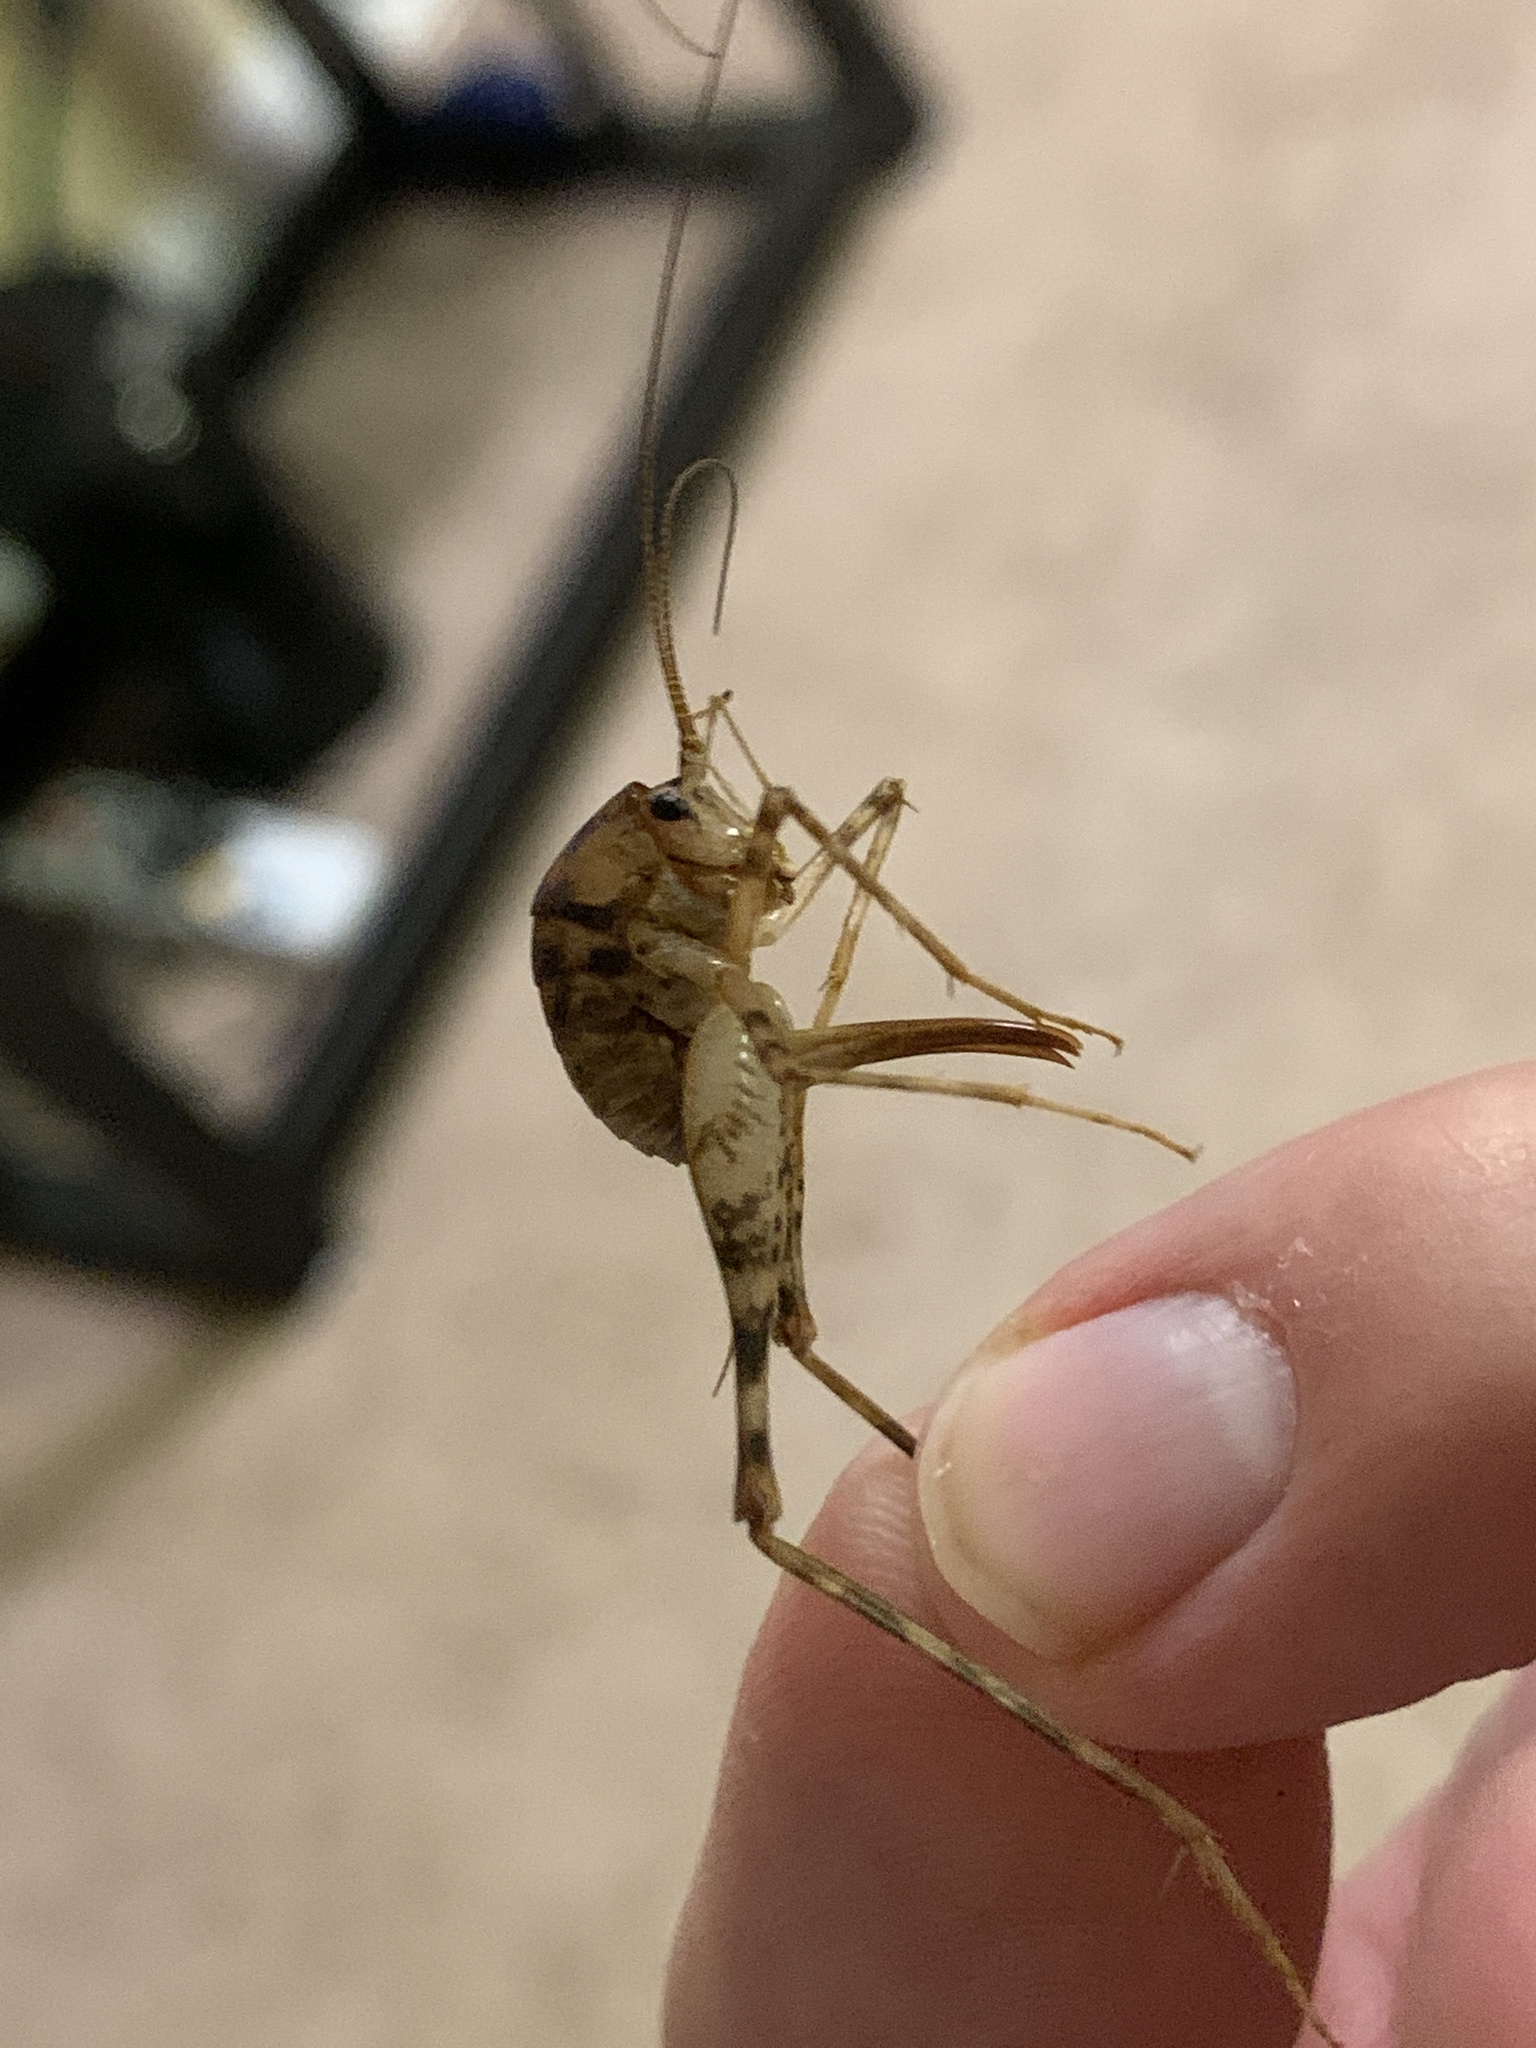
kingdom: Animalia
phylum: Arthropoda
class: Insecta
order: Orthoptera
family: Rhaphidophoridae
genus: Tachycines
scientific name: Tachycines asynamorus
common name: Greenhouse camel cricket
